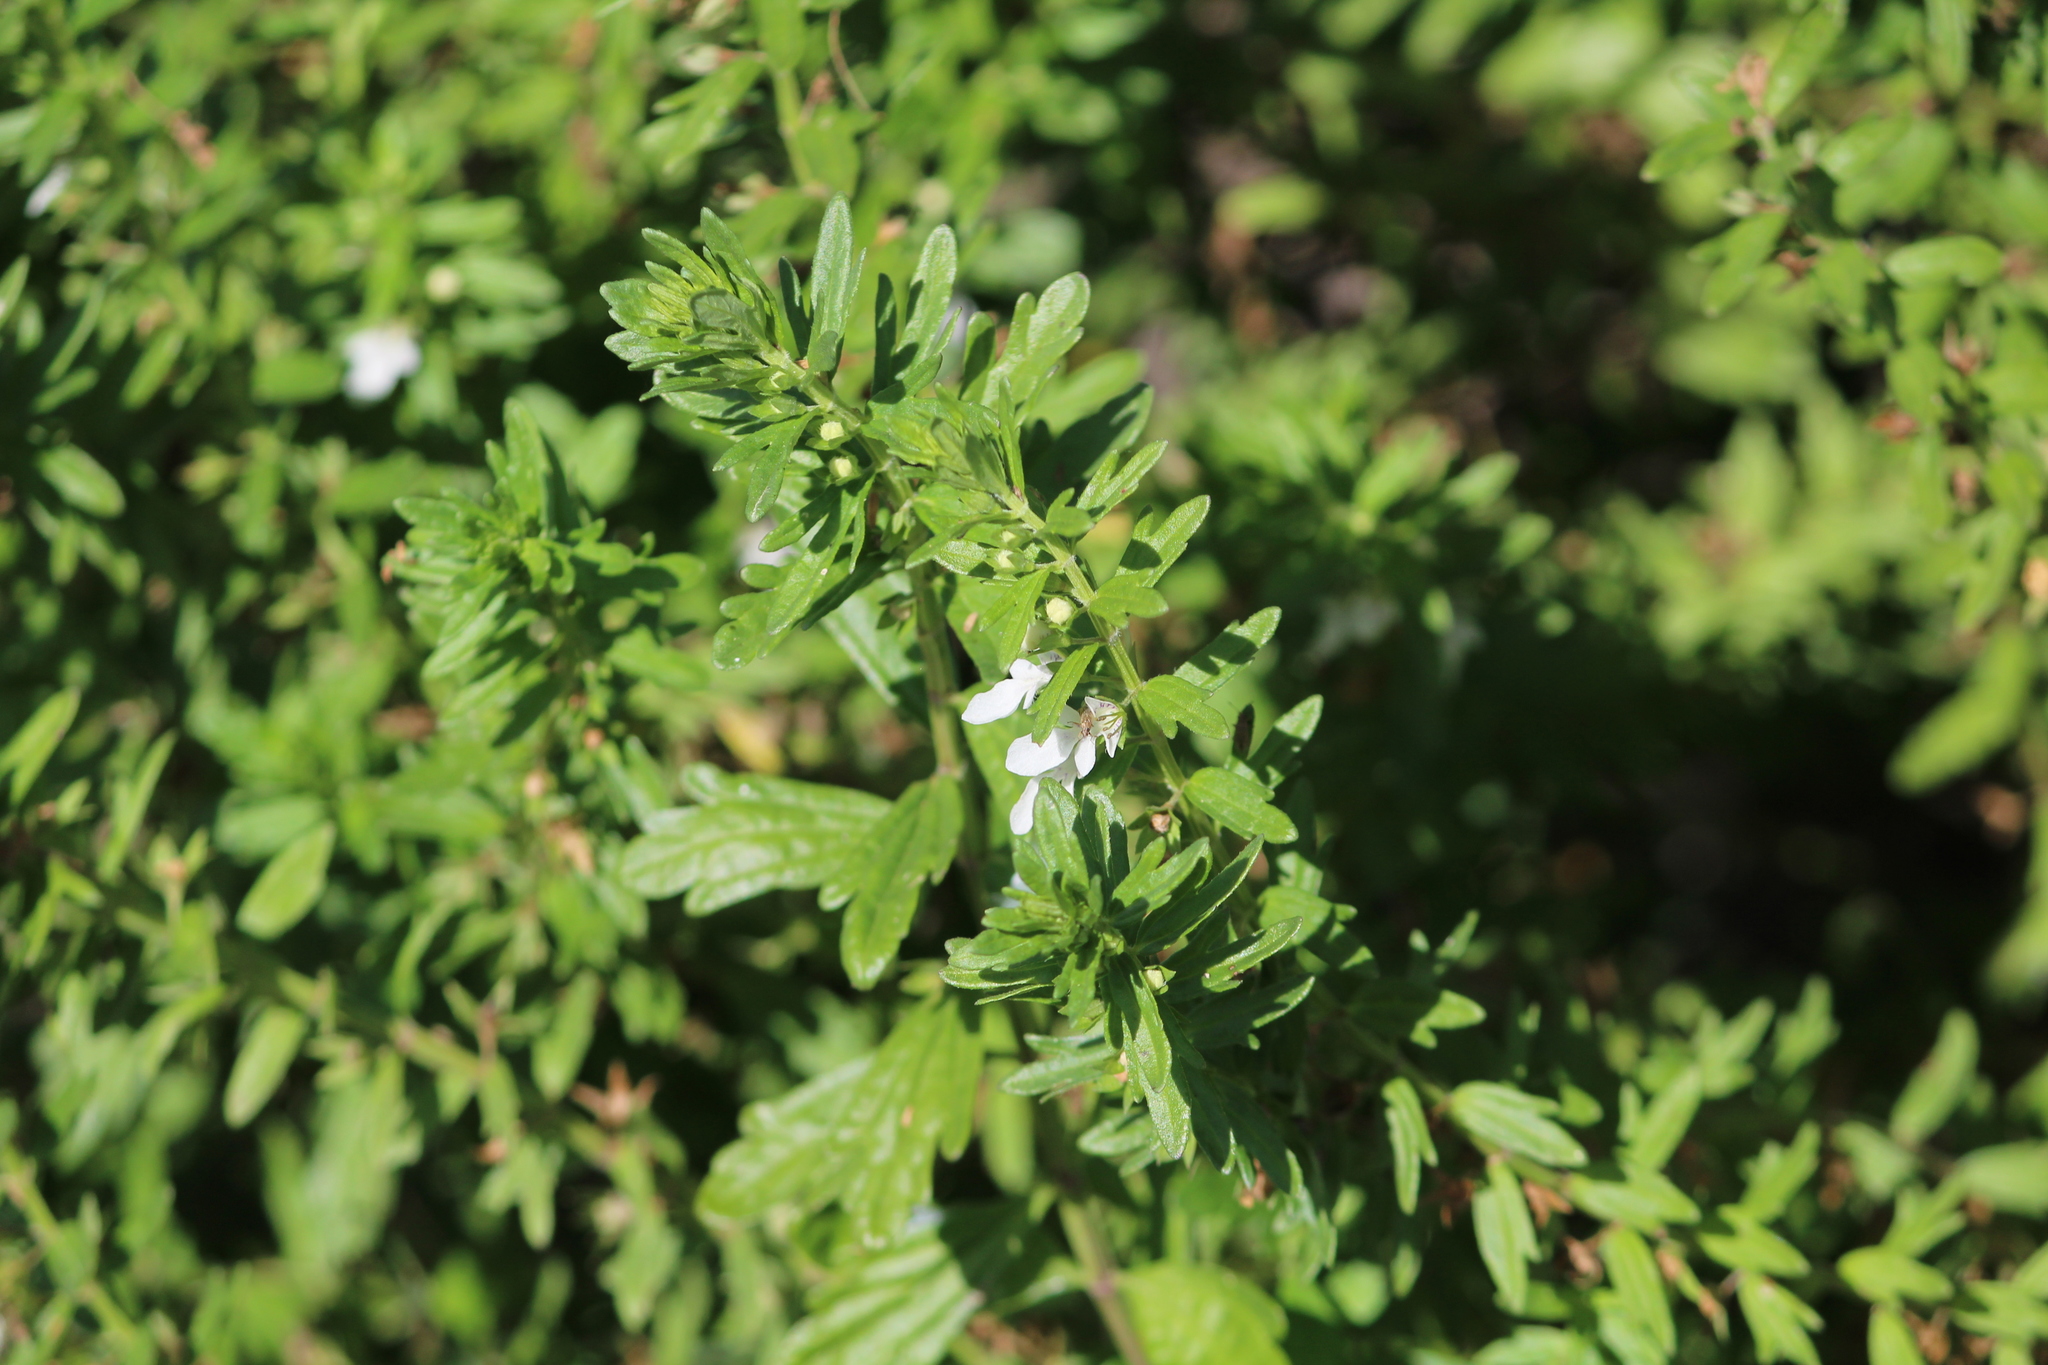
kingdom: Plantae
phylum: Tracheophyta
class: Magnoliopsida
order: Lamiales
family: Lamiaceae
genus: Teucrium
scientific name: Teucrium cubense
